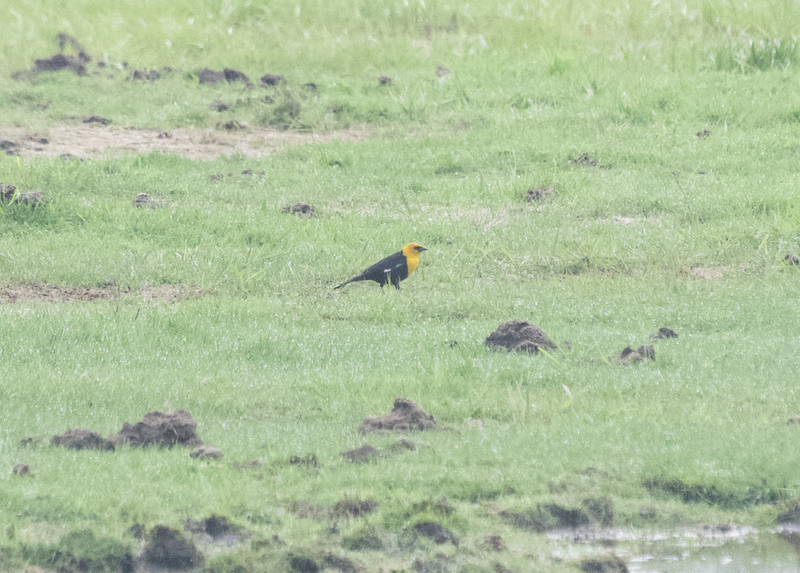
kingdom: Animalia
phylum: Chordata
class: Aves
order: Passeriformes
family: Icteridae
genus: Xanthocephalus
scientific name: Xanthocephalus xanthocephalus
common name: Yellow-headed blackbird
